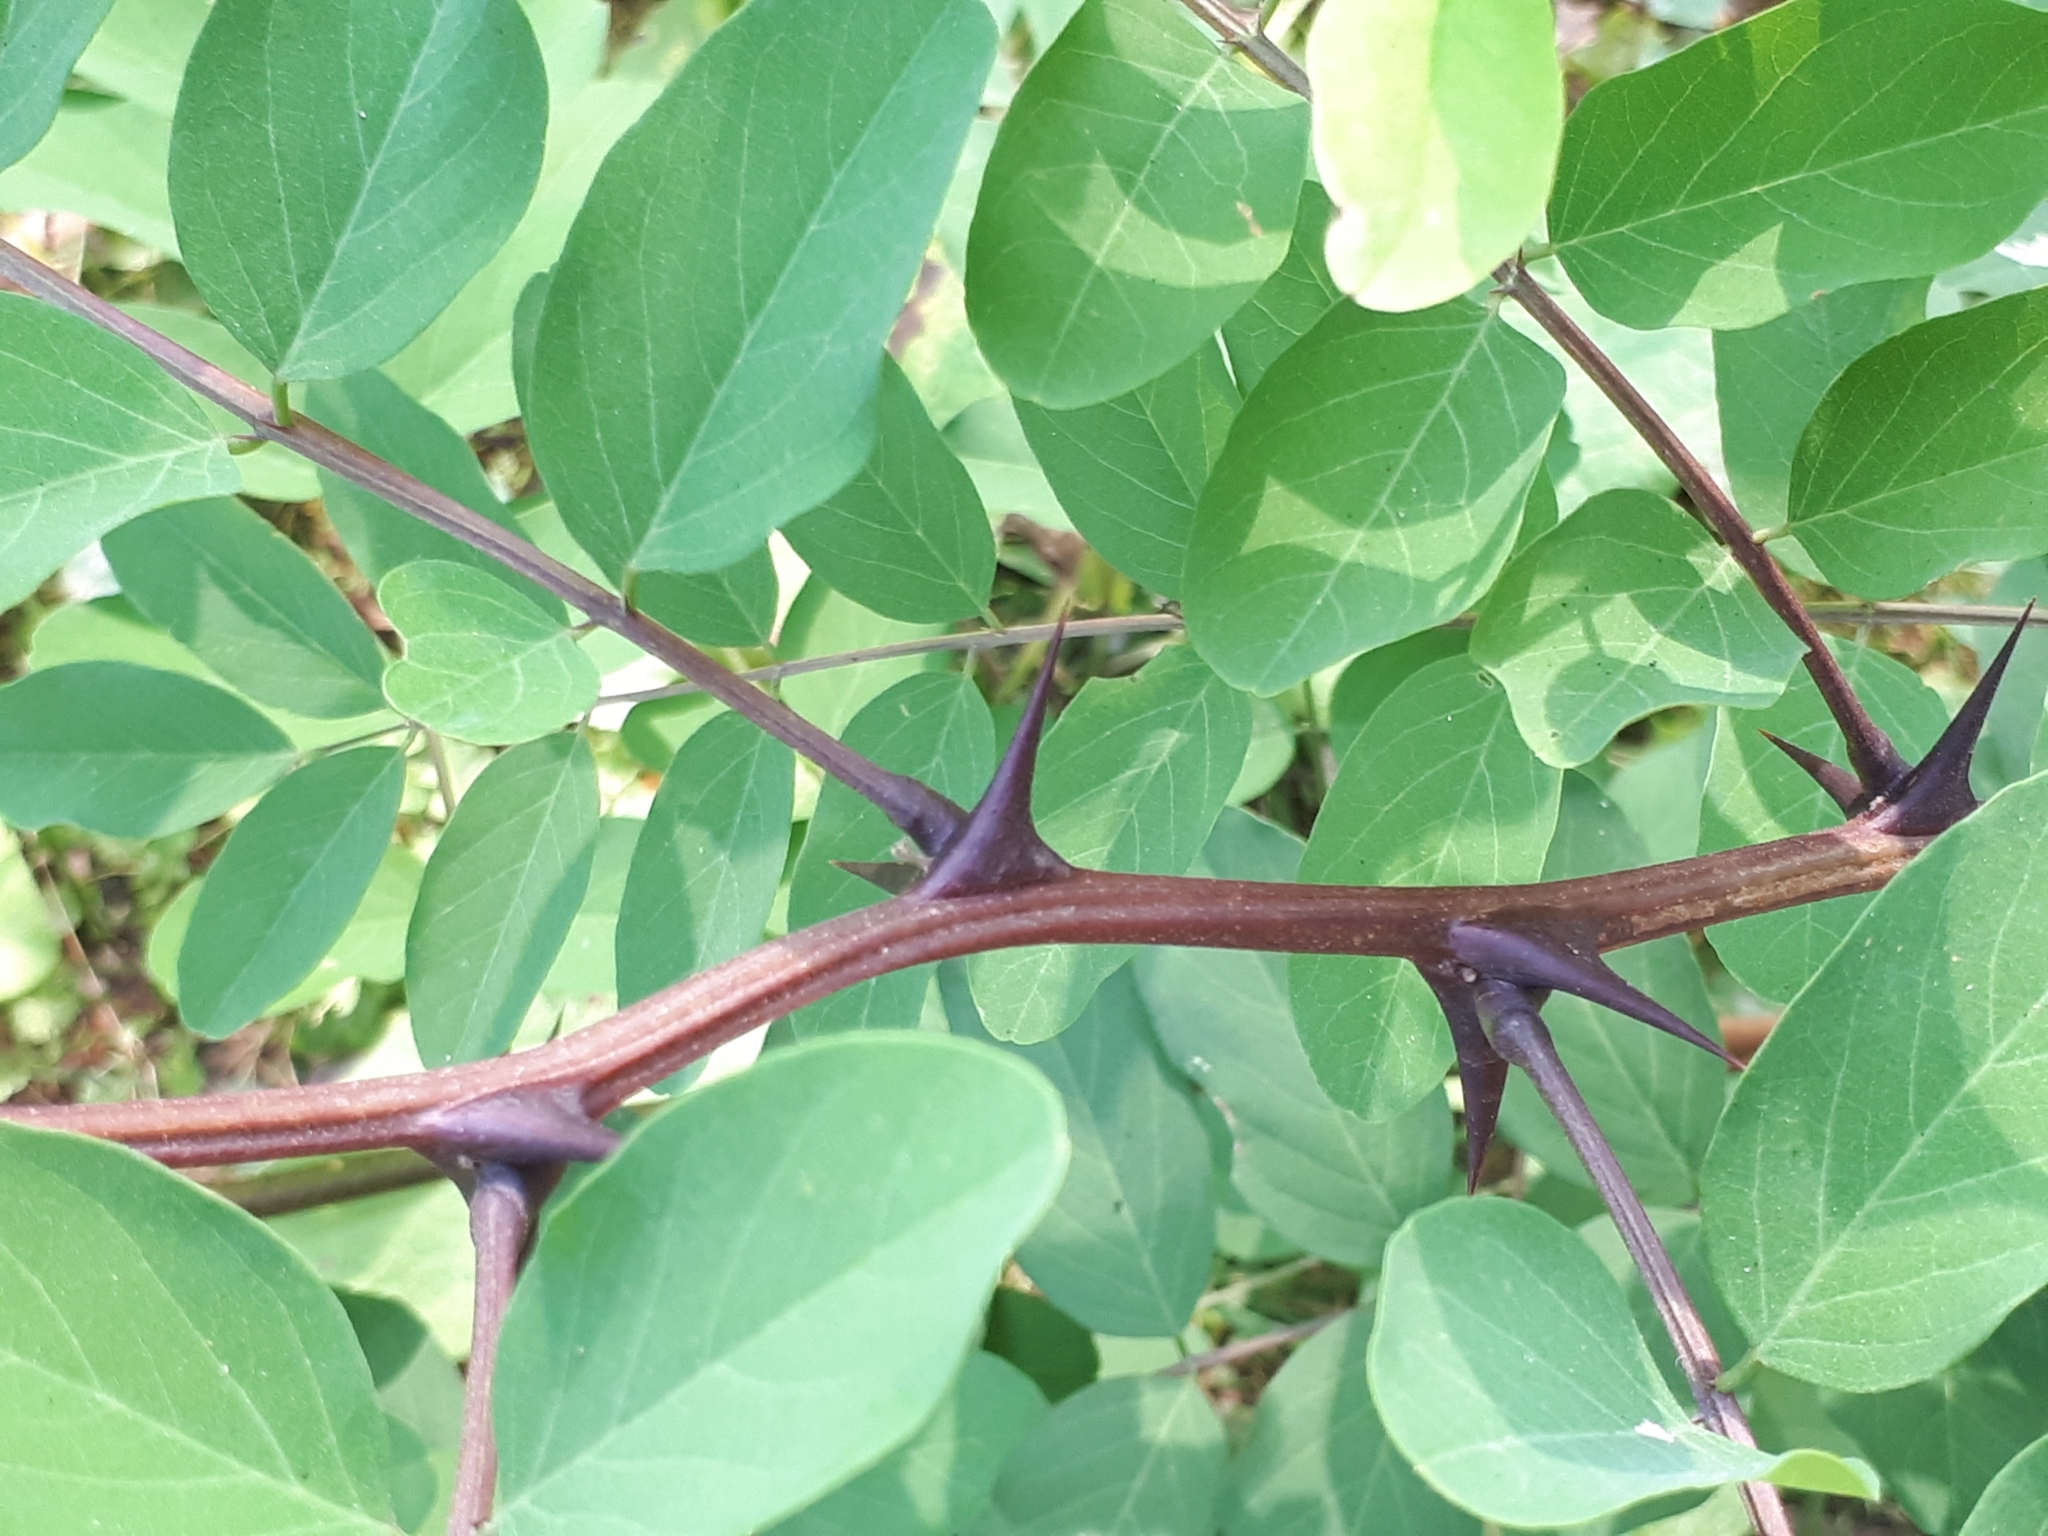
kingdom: Plantae
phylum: Tracheophyta
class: Magnoliopsida
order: Fabales
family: Fabaceae
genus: Robinia
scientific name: Robinia pseudoacacia
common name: Black locust
